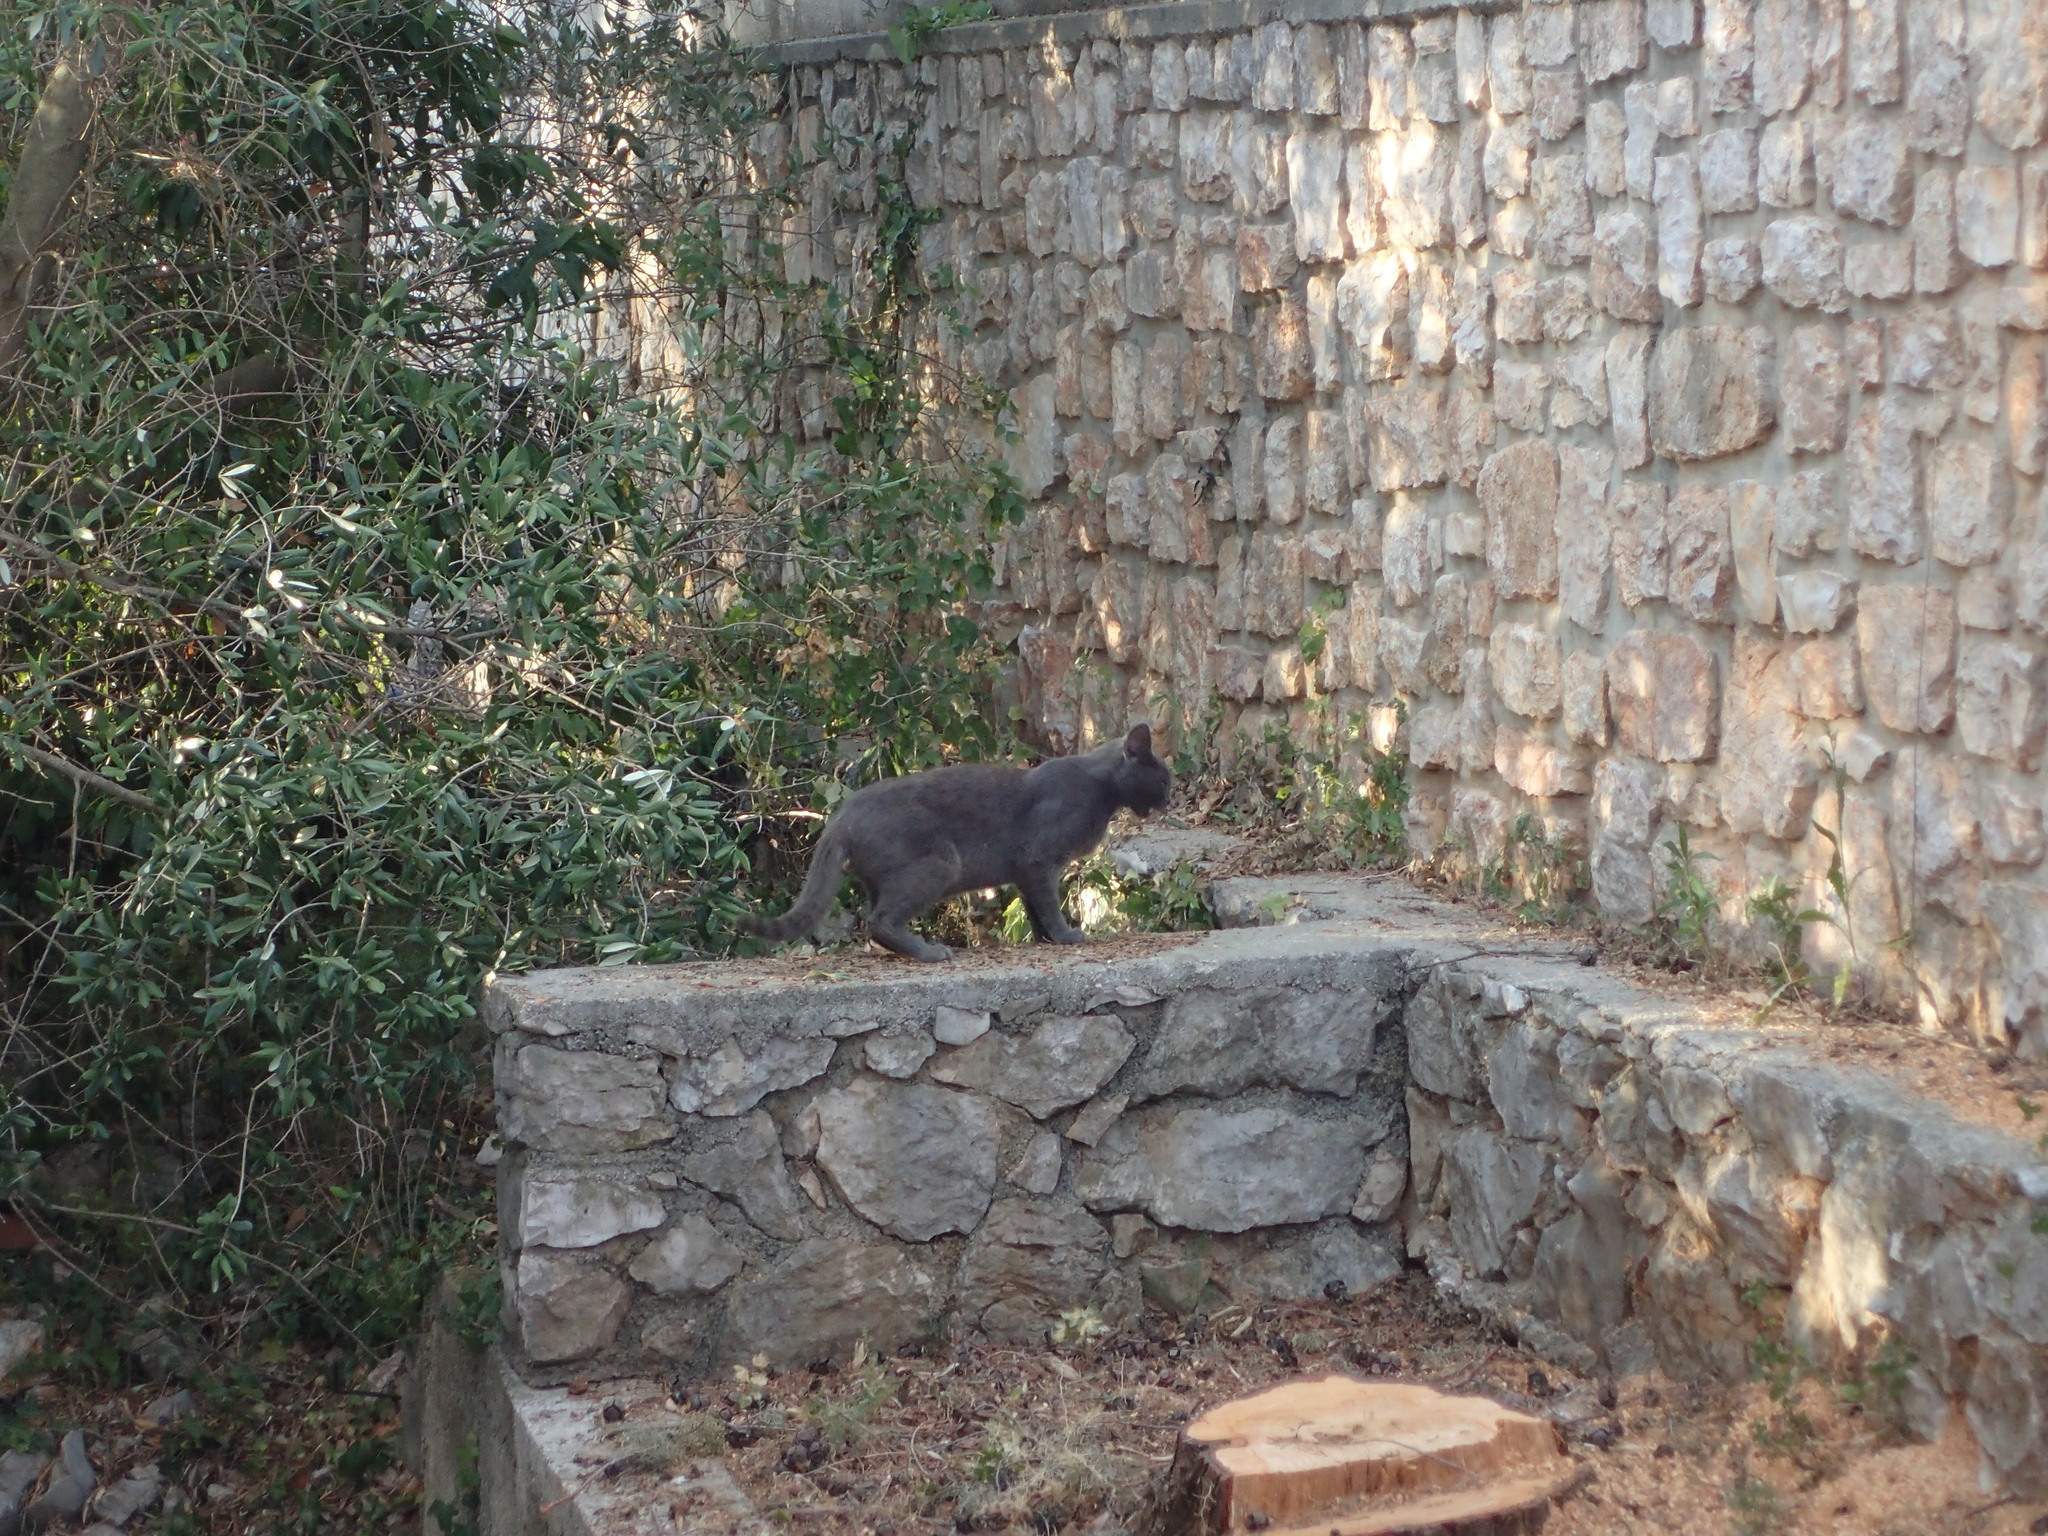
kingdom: Animalia
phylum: Chordata
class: Mammalia
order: Carnivora
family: Felidae
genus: Felis
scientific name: Felis catus
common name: Domestic cat
